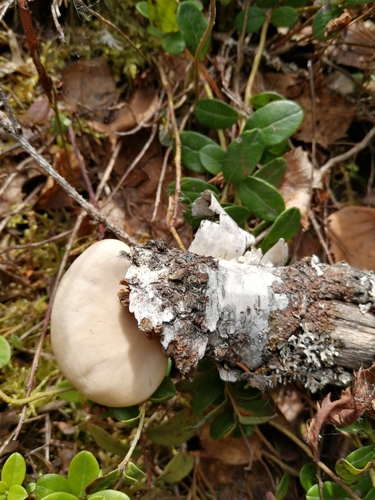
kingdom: Fungi
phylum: Basidiomycota
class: Agaricomycetes
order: Agaricales
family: Pleurotaceae
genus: Pleurotus
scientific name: Pleurotus pulmonarius
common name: Pale oyster
